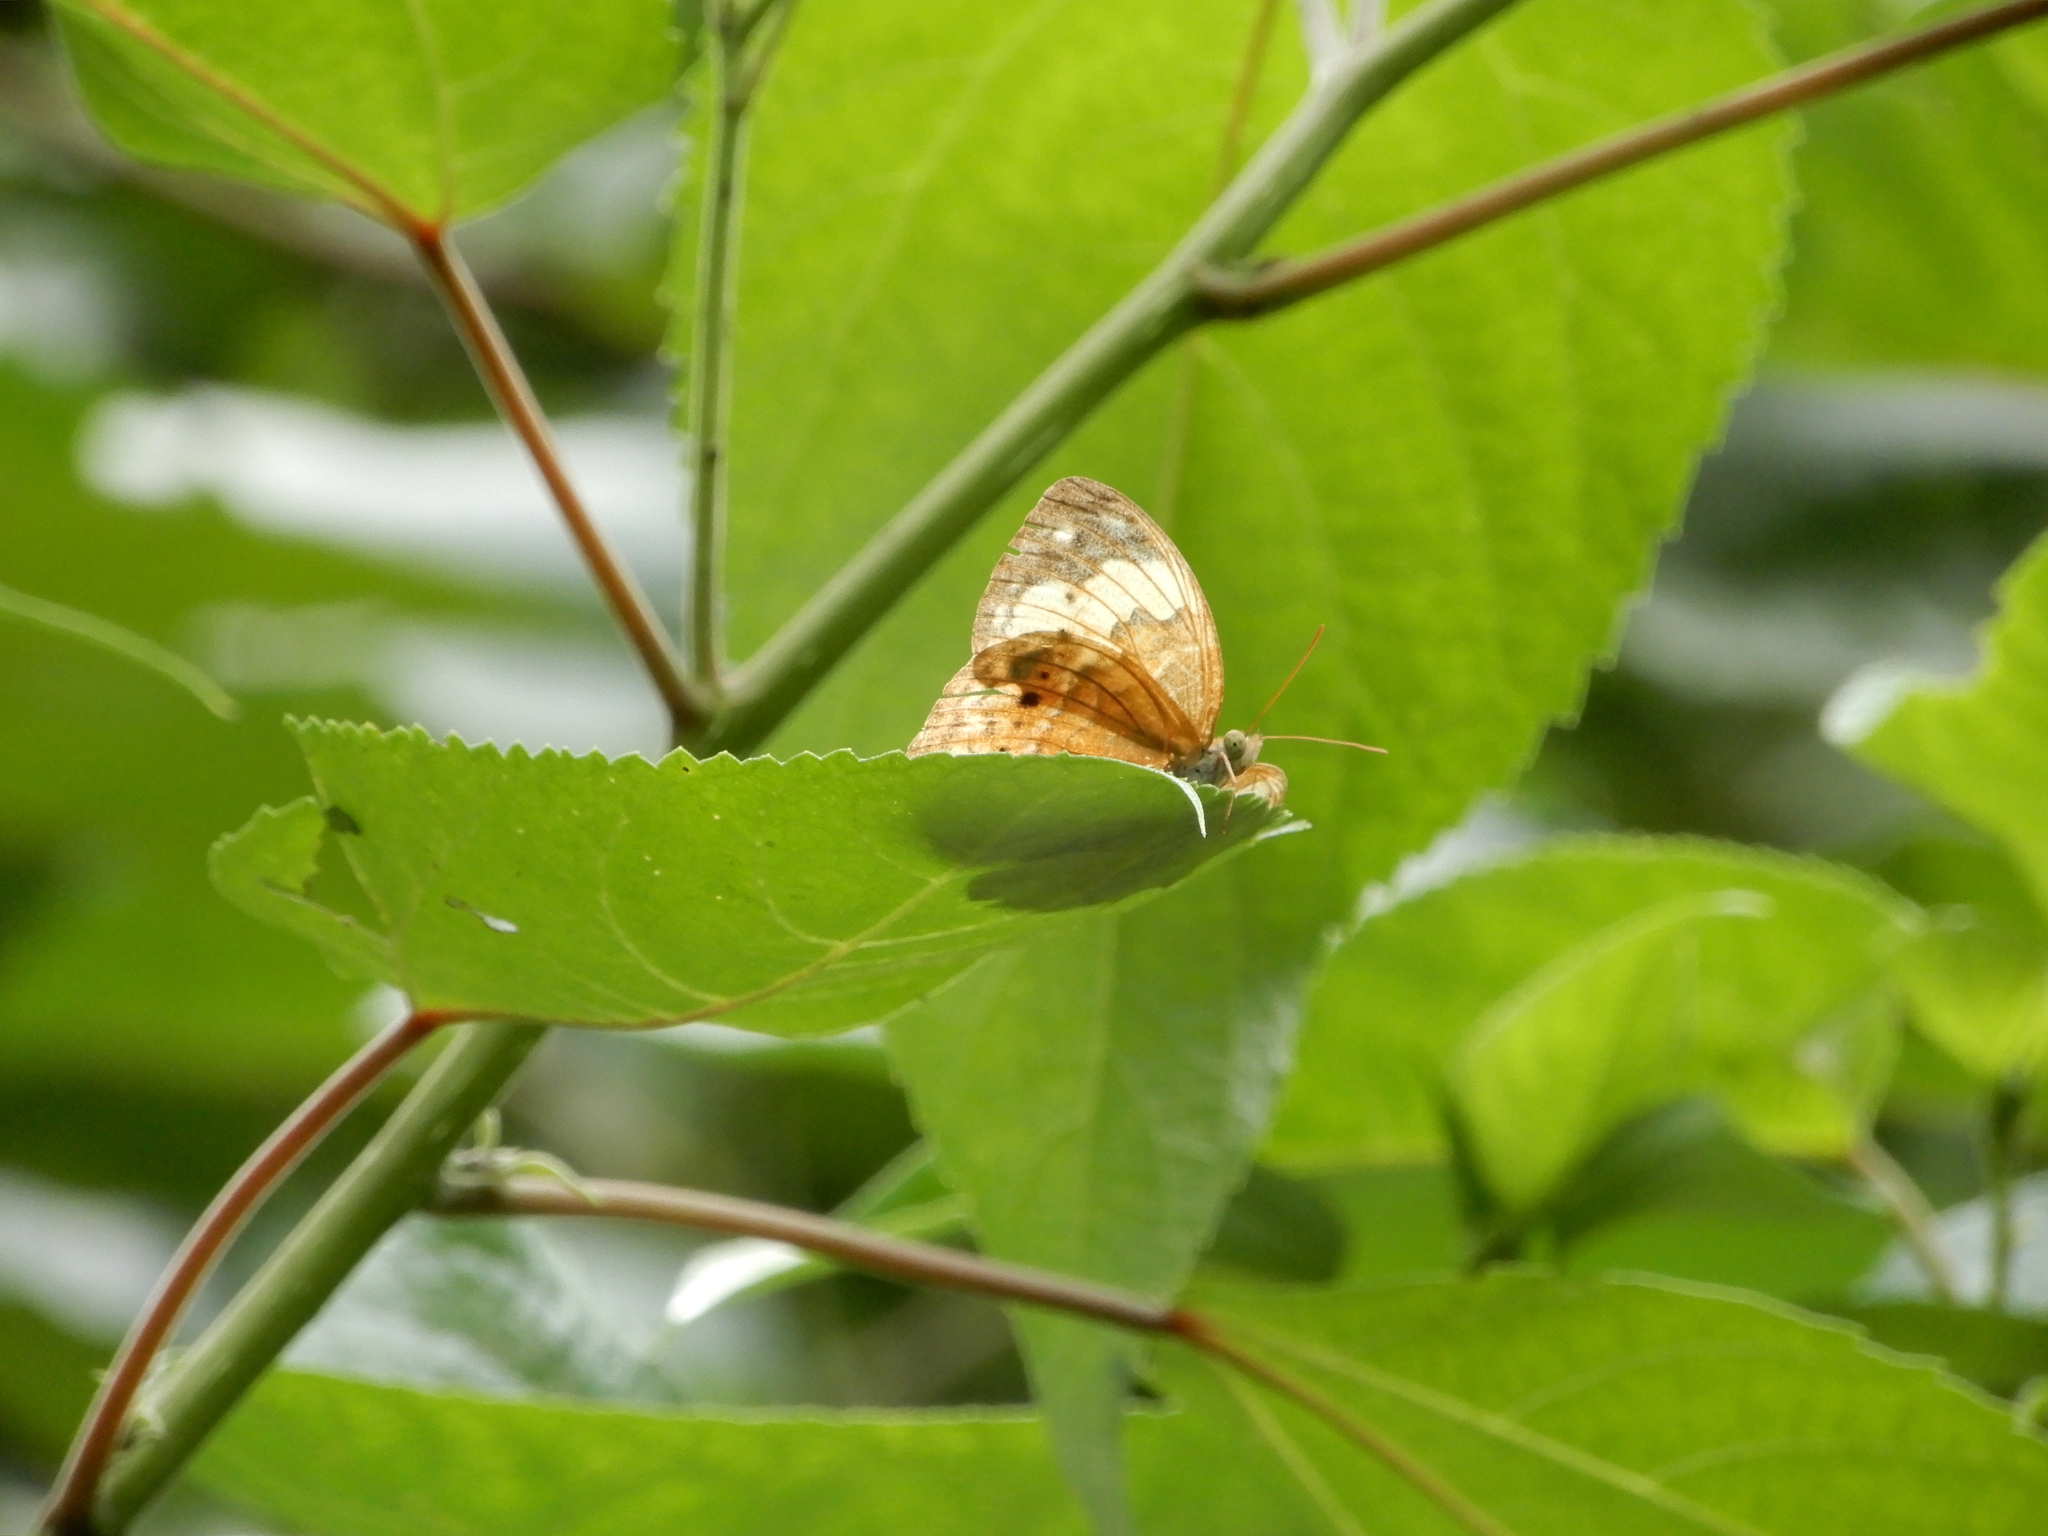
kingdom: Animalia
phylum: Arthropoda
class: Insecta
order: Lepidoptera
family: Nymphalidae
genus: Cupha
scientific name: Cupha erymanthis
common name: Rustic
